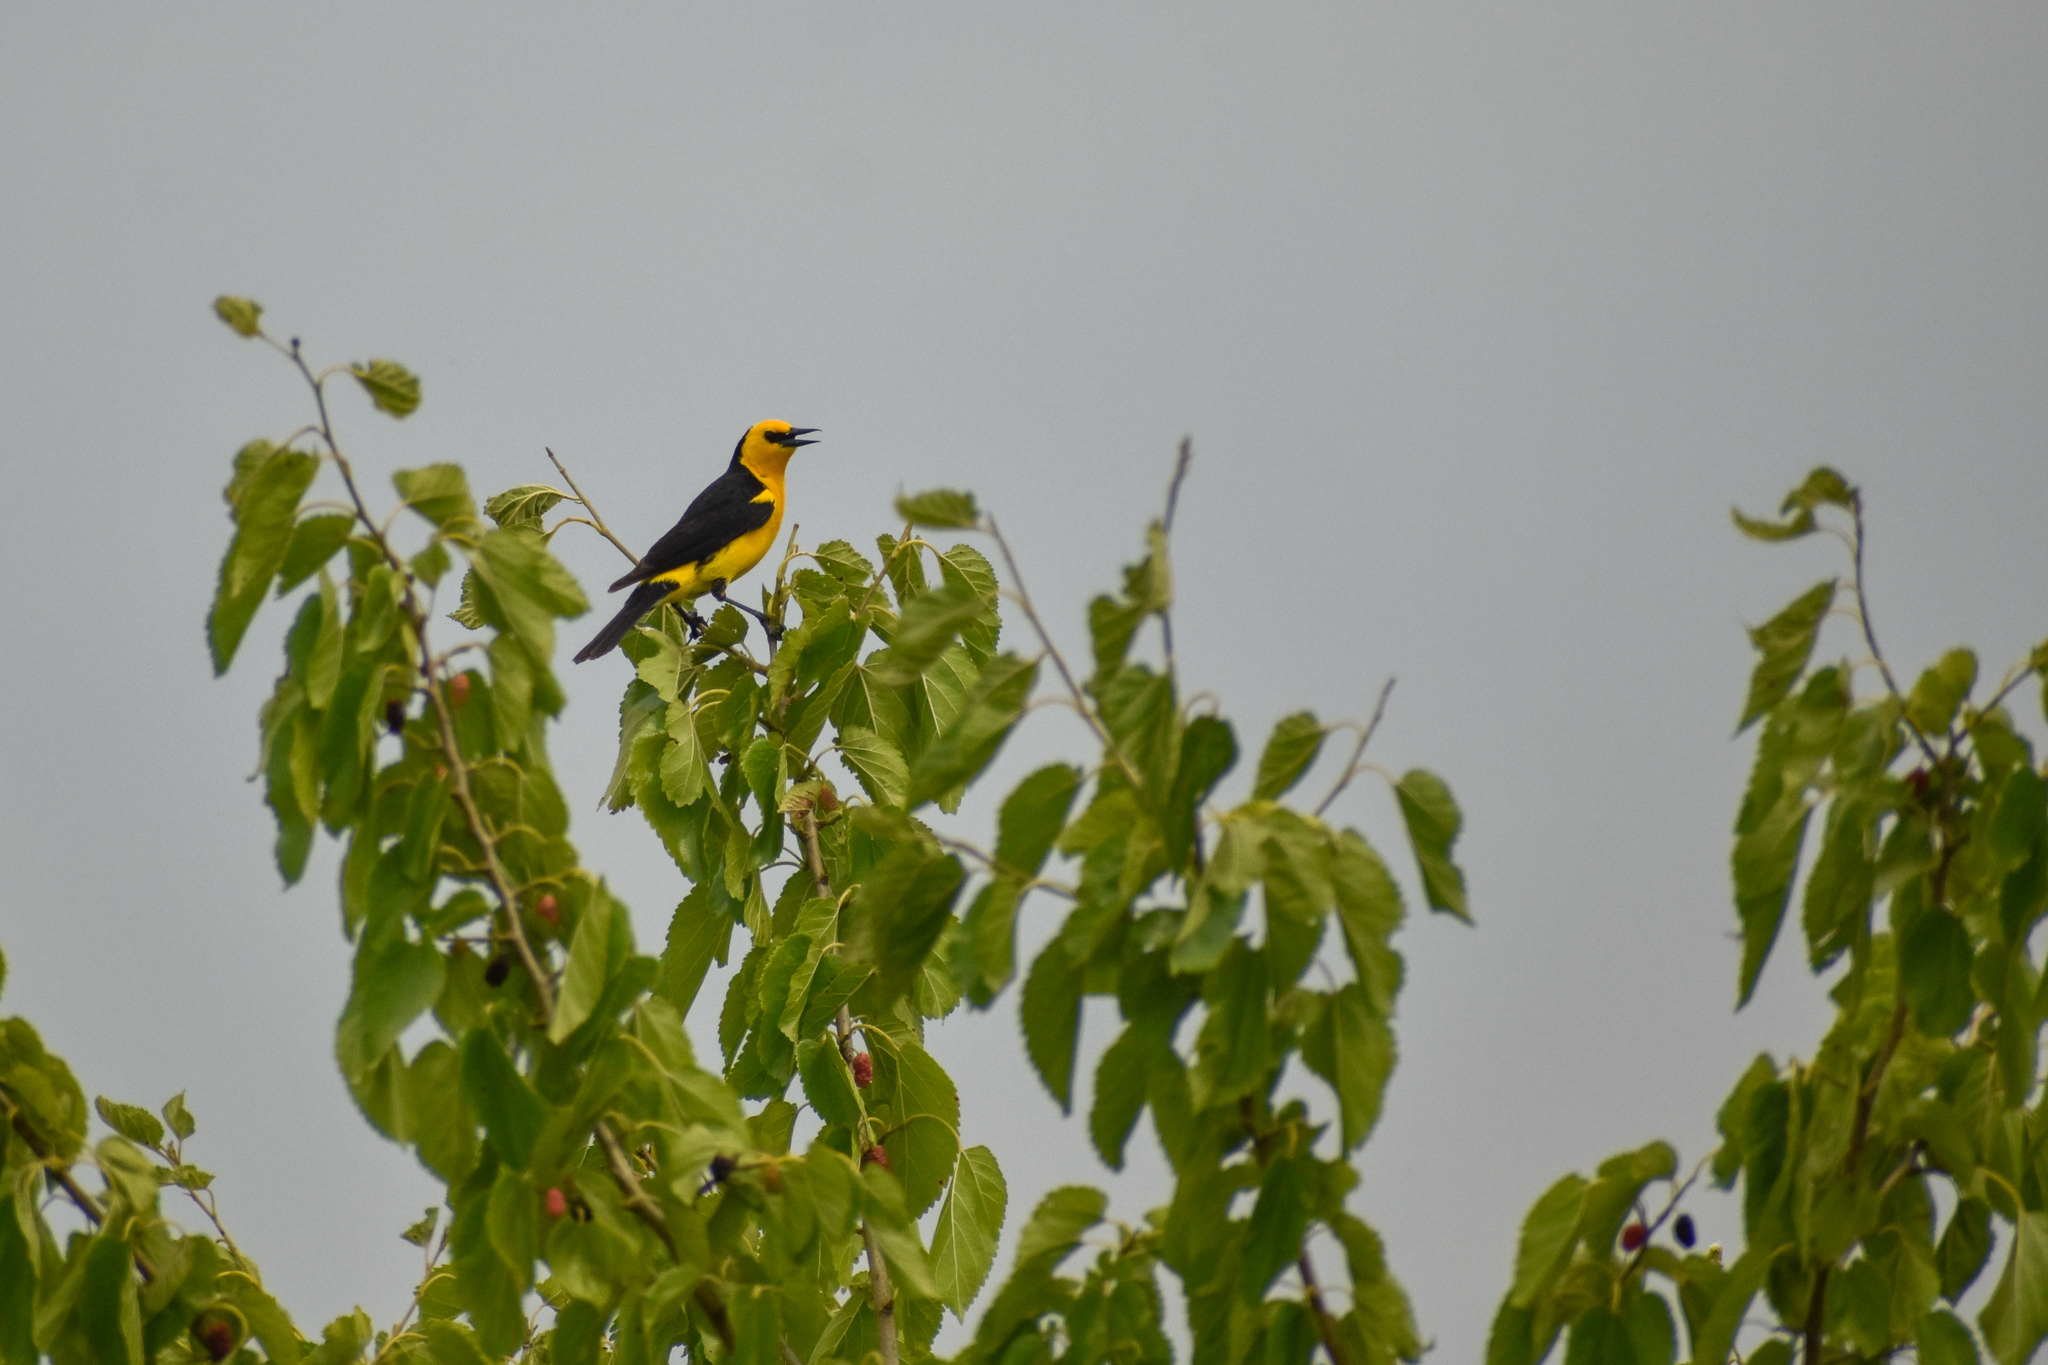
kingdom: Animalia
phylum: Chordata
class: Aves
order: Passeriformes
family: Icteridae
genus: Xanthopsar
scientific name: Xanthopsar flavus
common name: Saffron-cowled blackbird
